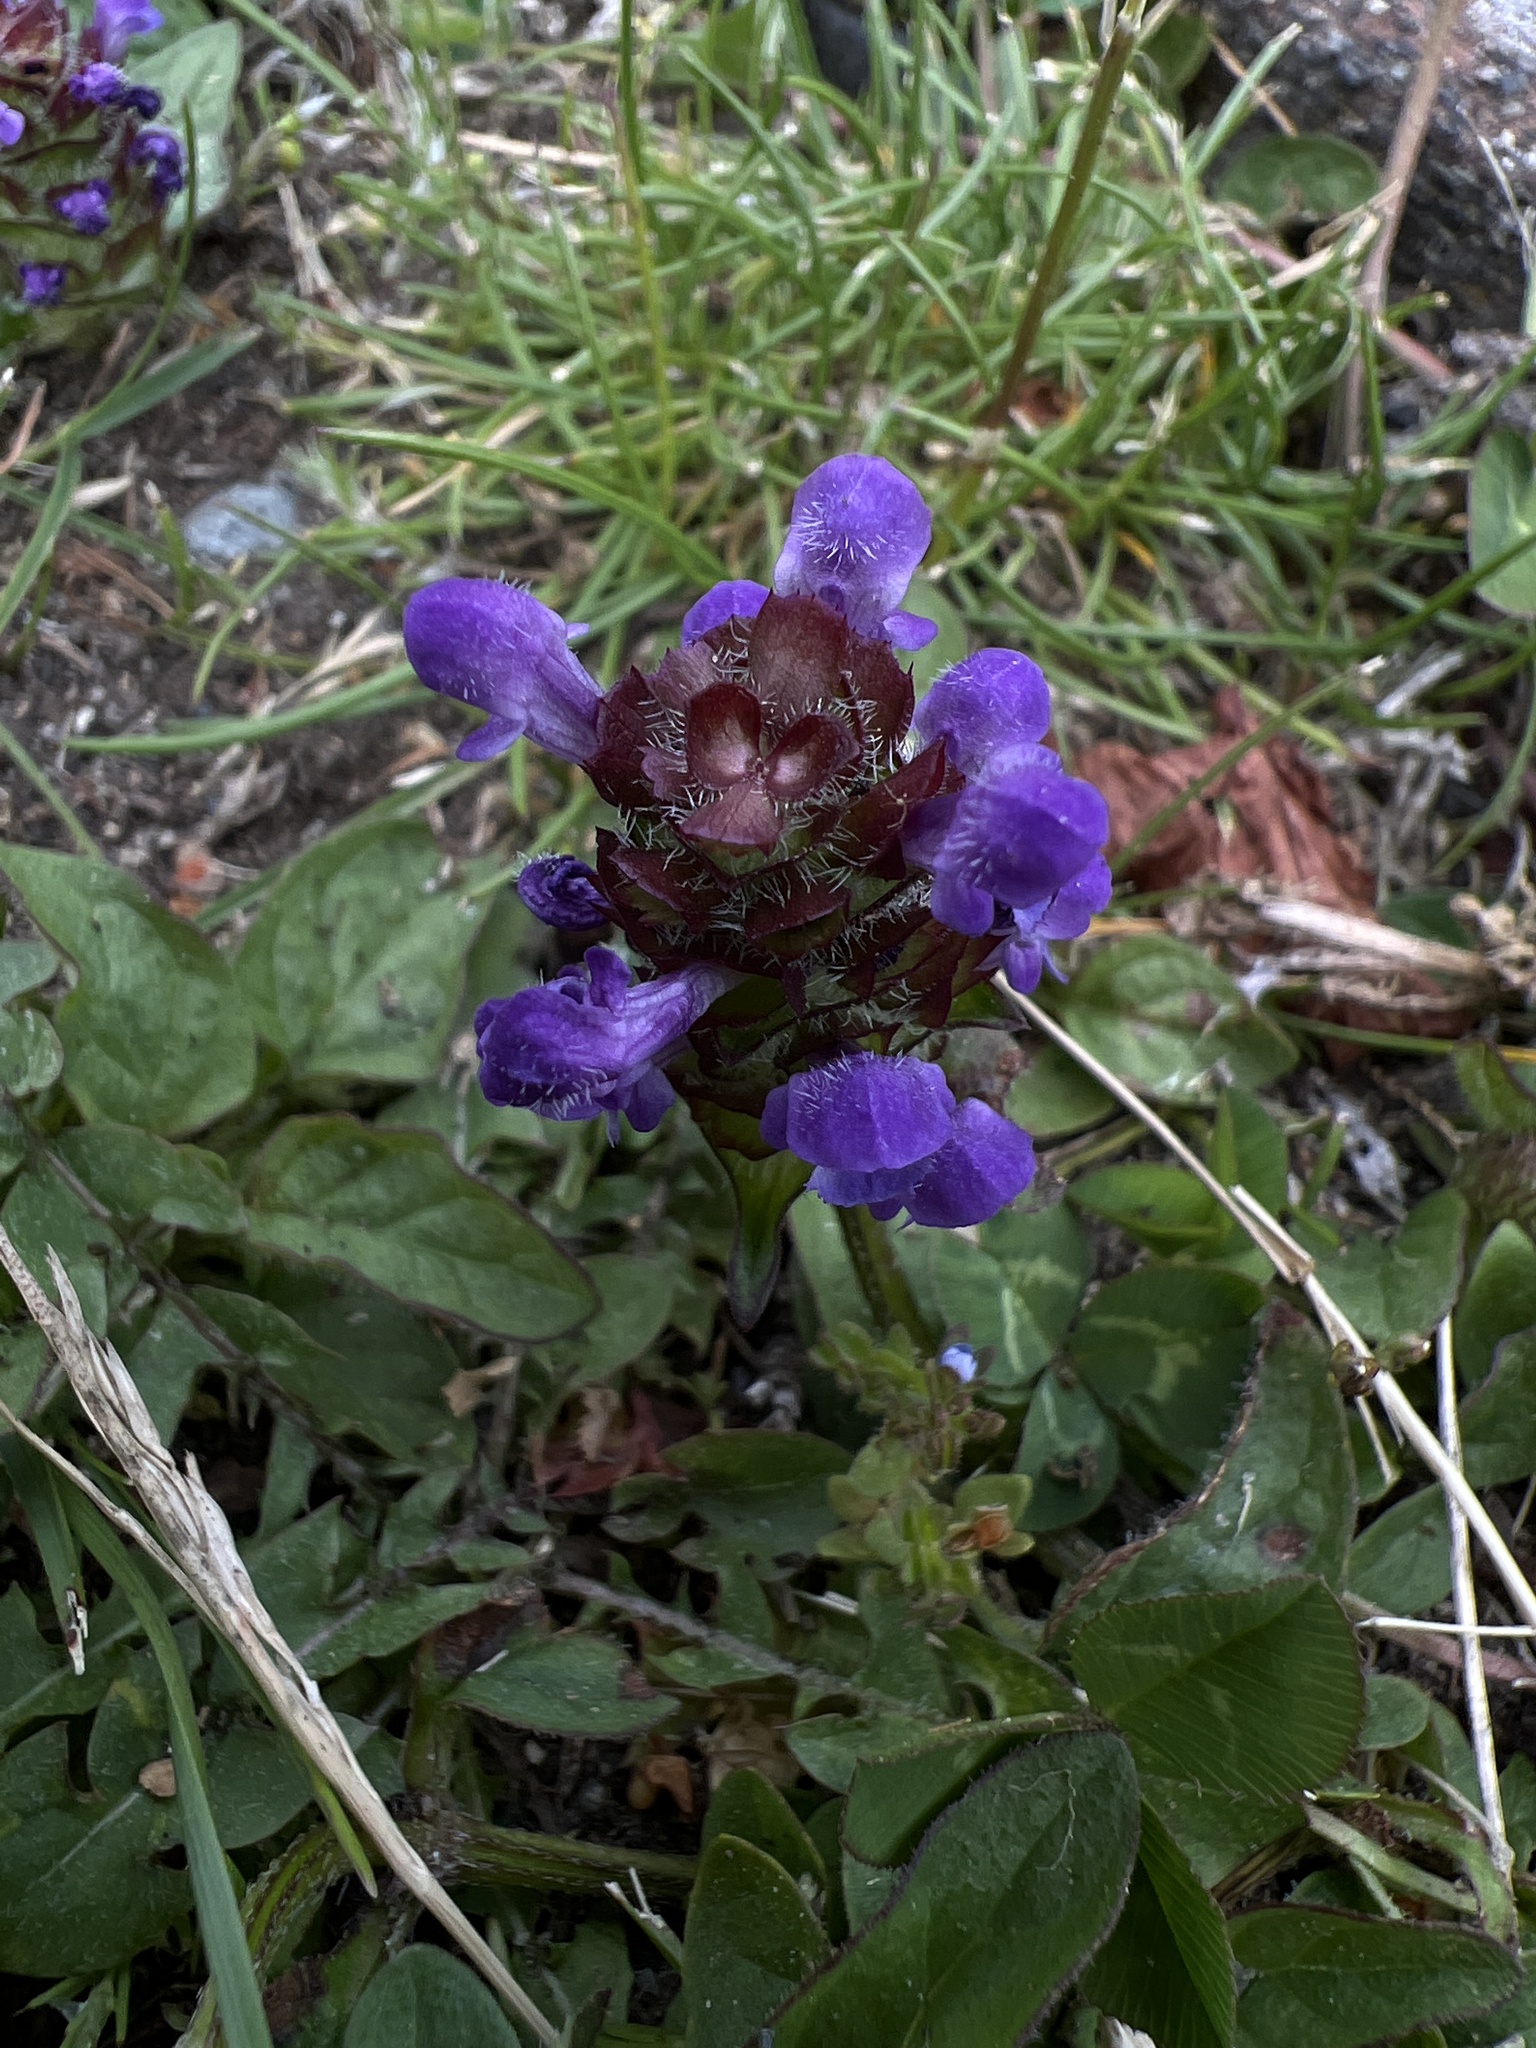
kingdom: Plantae
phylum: Tracheophyta
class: Magnoliopsida
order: Lamiales
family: Lamiaceae
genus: Prunella
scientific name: Prunella vulgaris
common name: Heal-all
